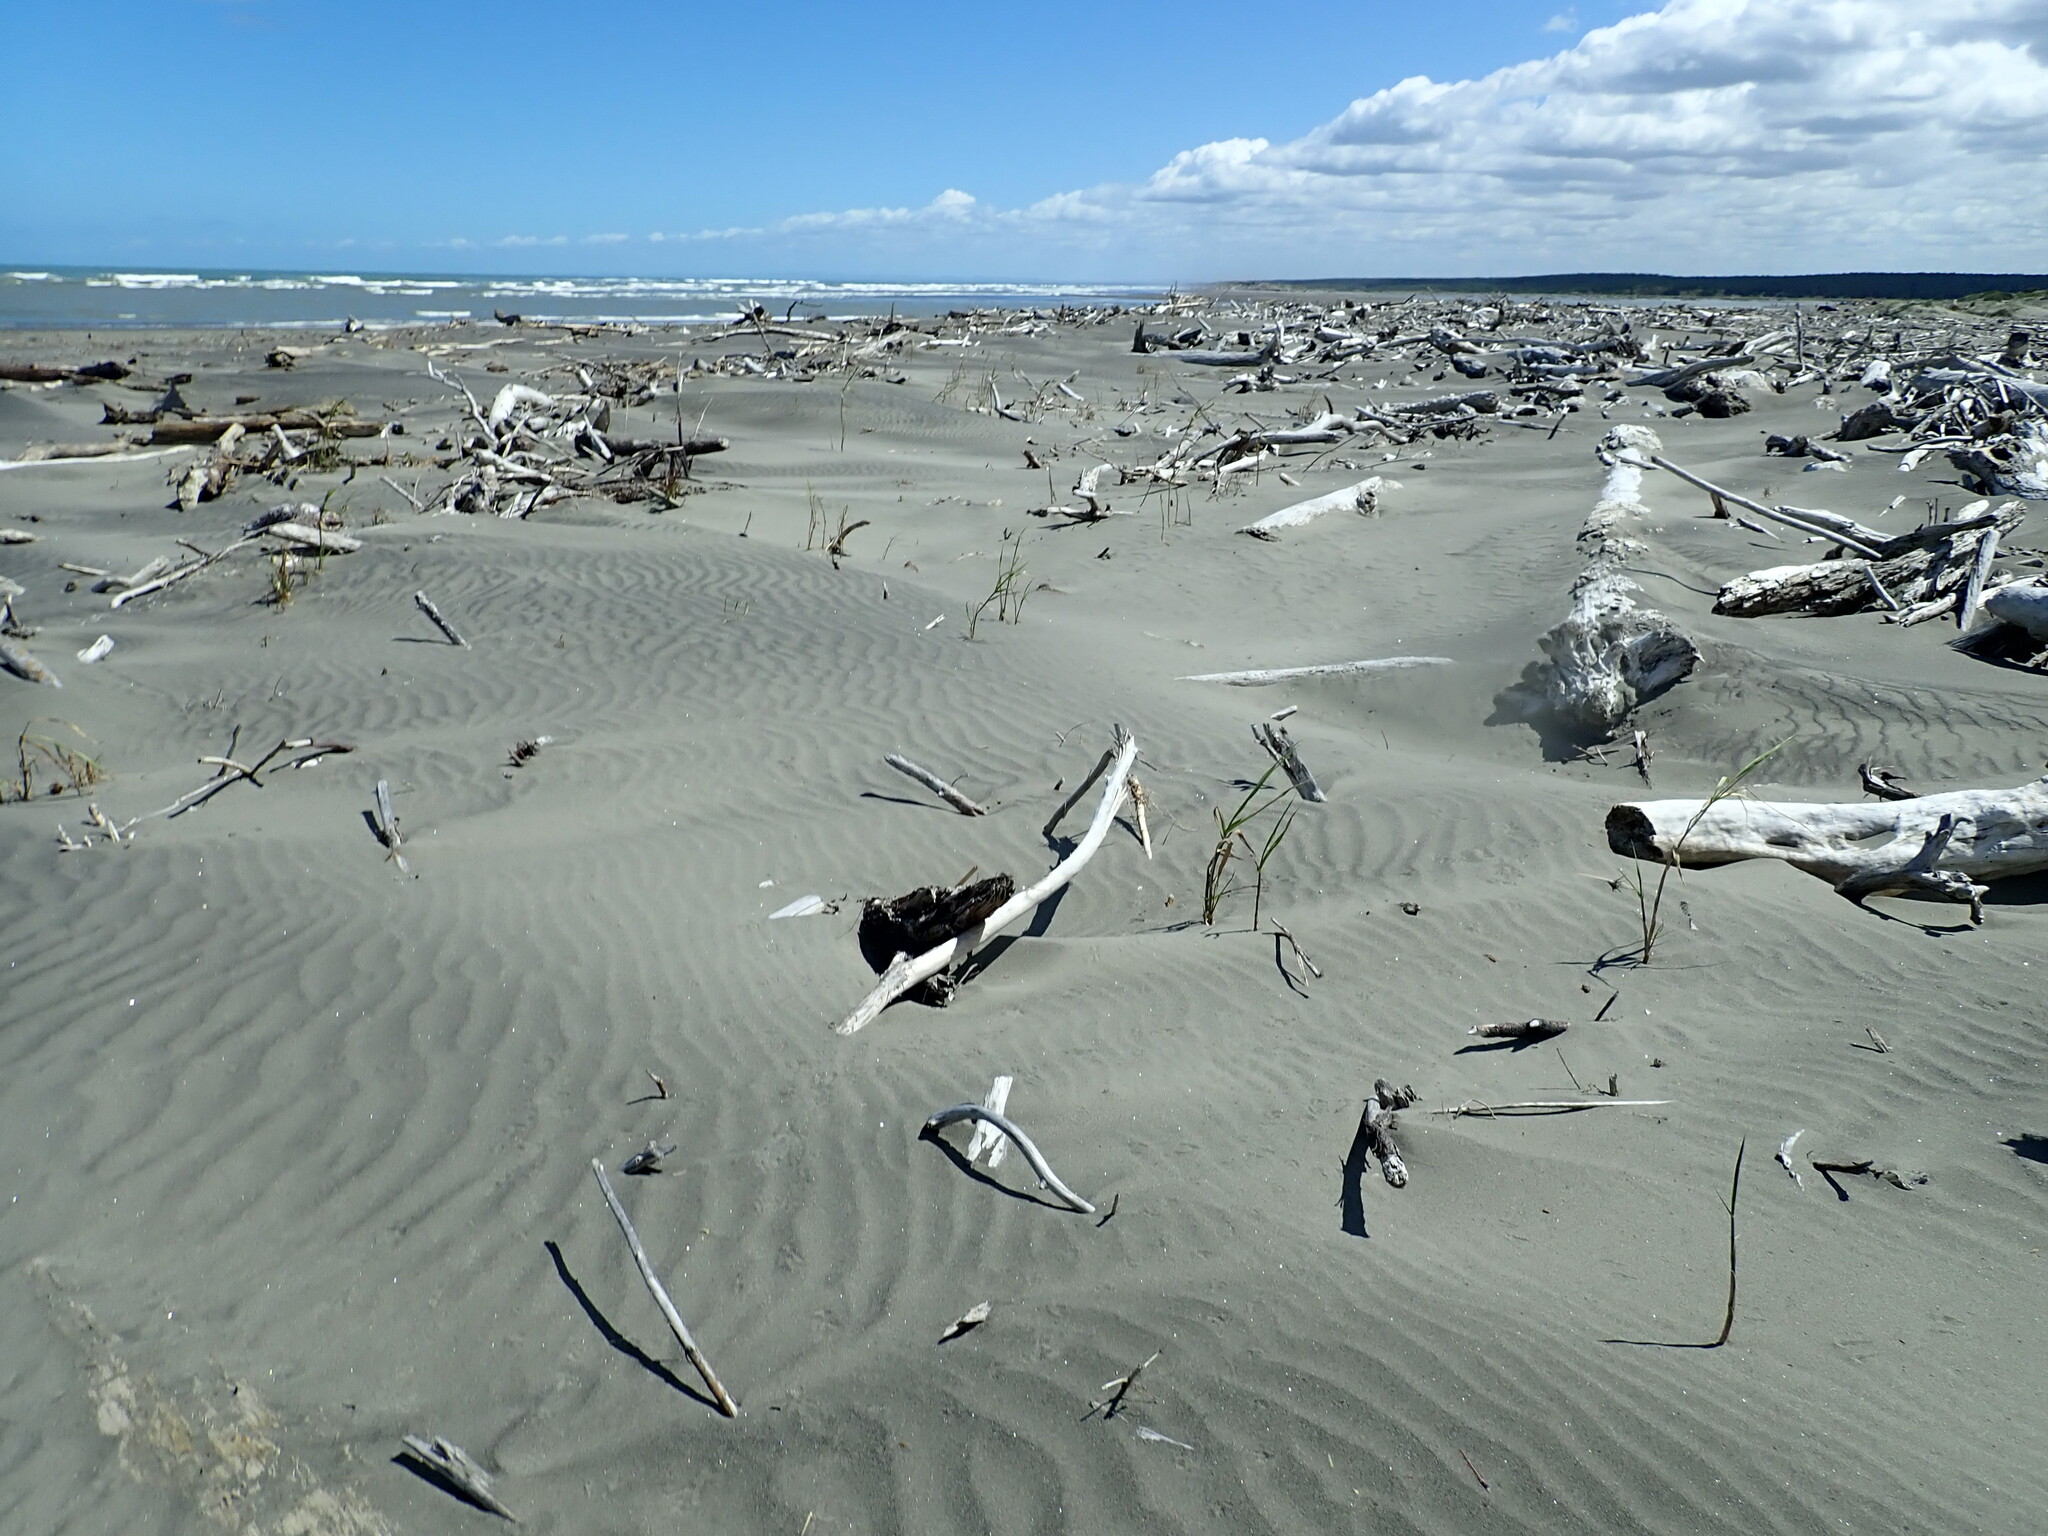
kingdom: Plantae
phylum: Tracheophyta
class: Liliopsida
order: Poales
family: Poaceae
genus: Phragmites
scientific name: Phragmites karka
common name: Tropical reed
